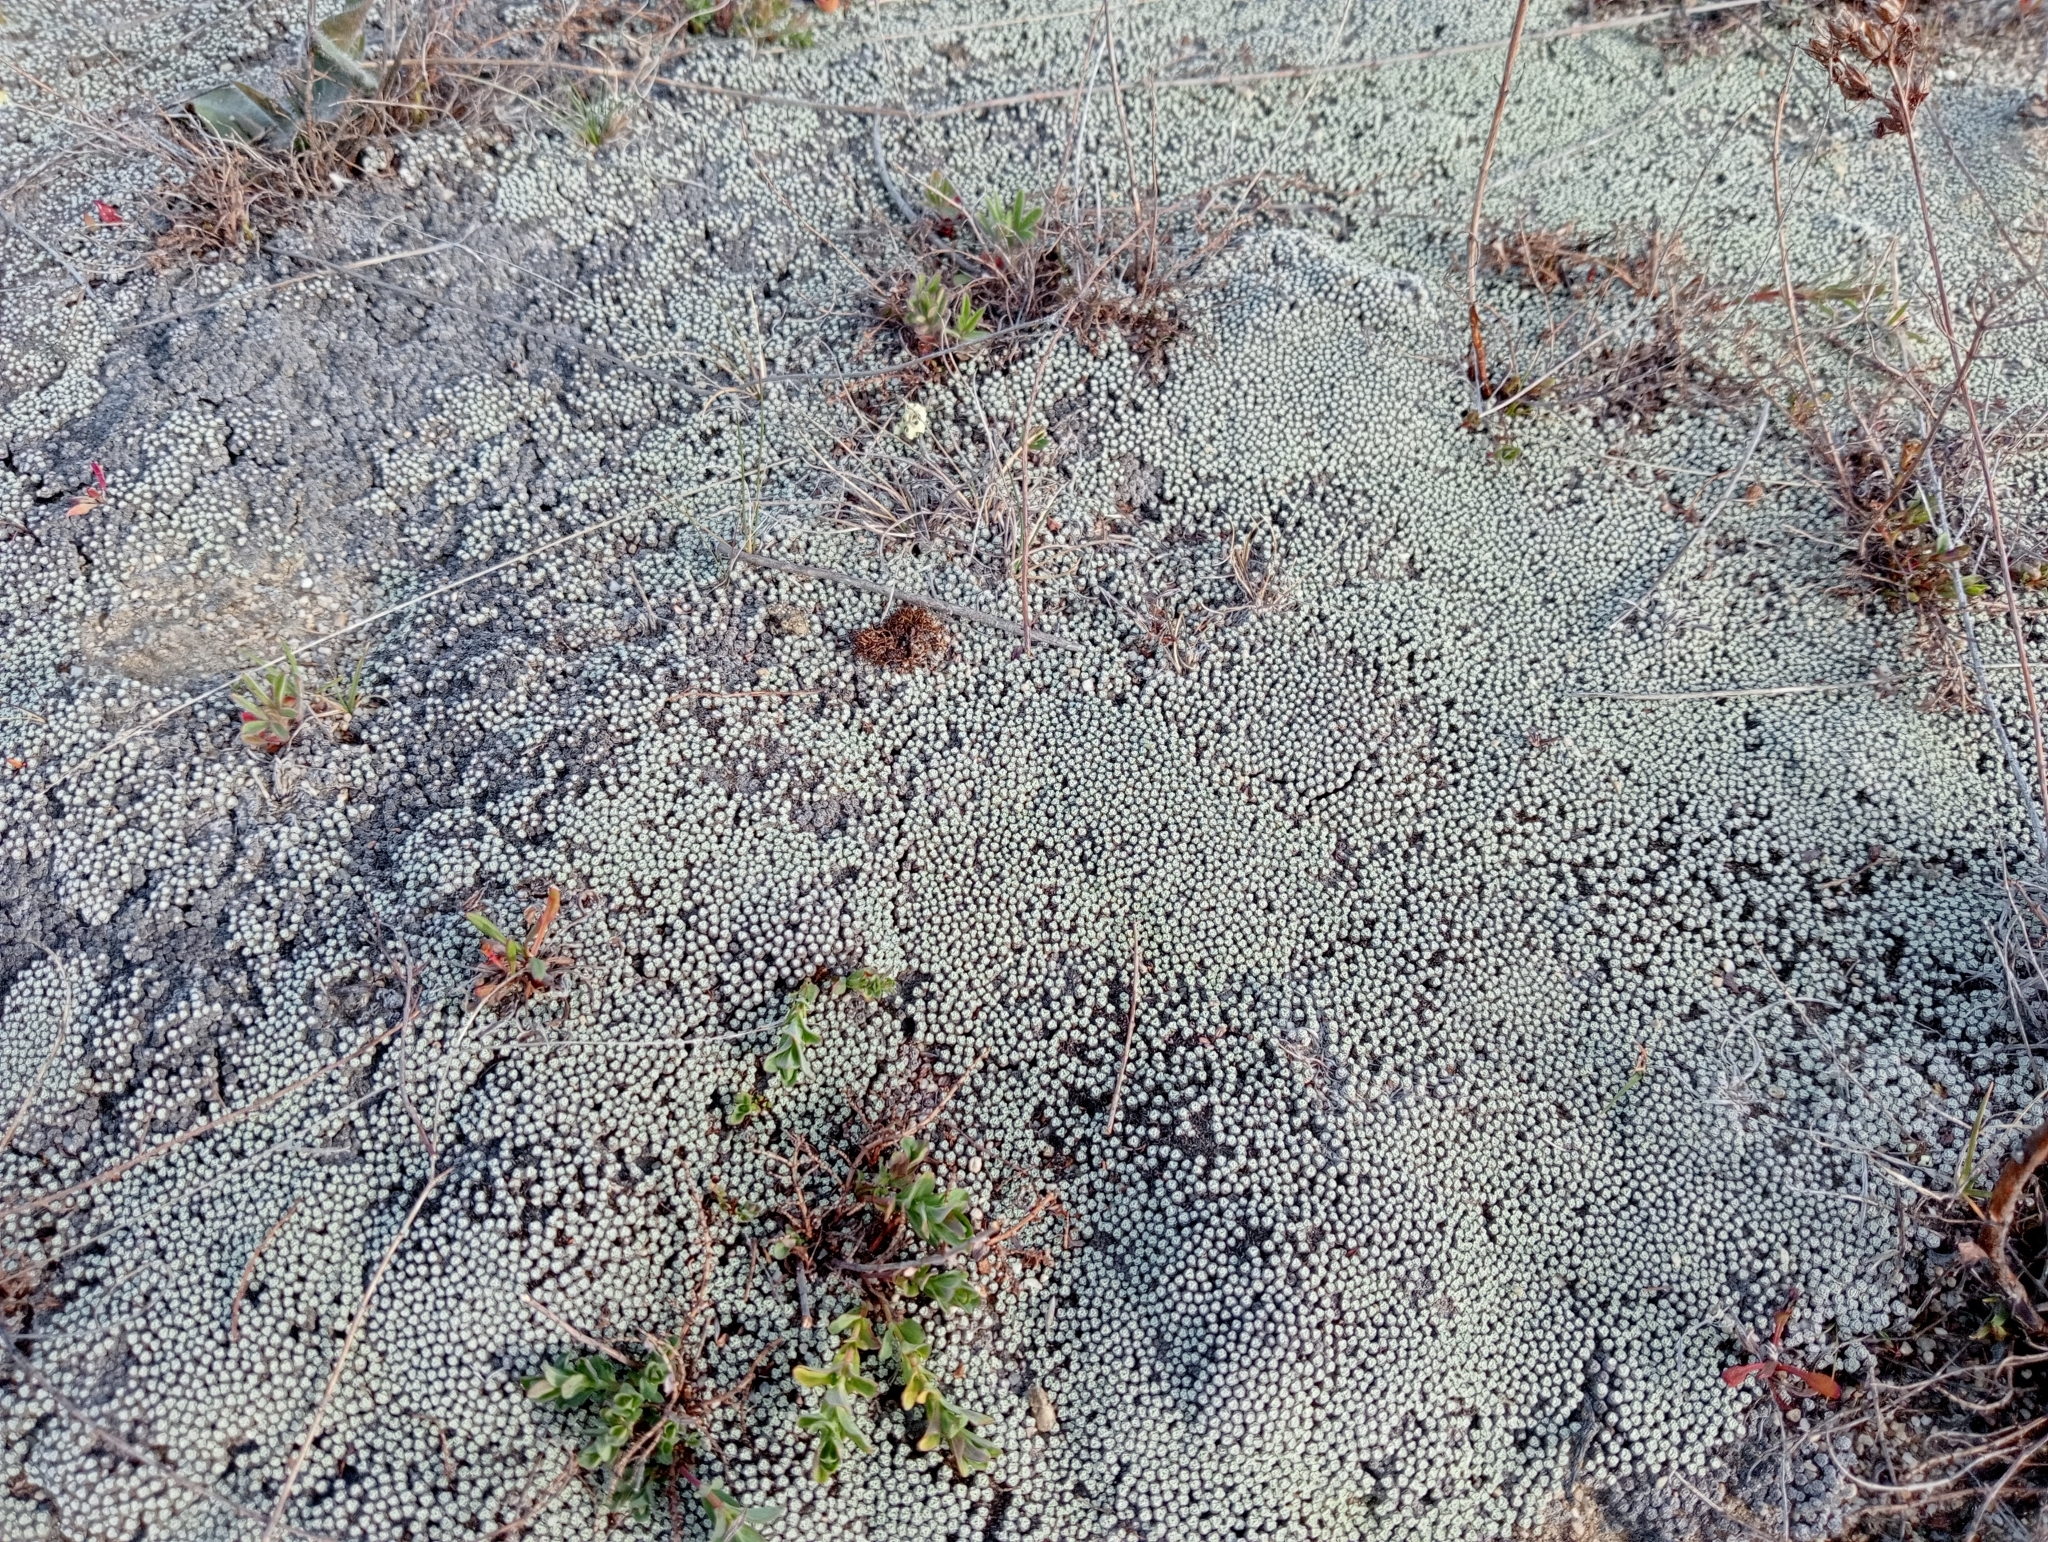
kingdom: Plantae
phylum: Tracheophyta
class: Magnoliopsida
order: Asterales
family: Asteraceae
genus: Raoulia
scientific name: Raoulia australis
